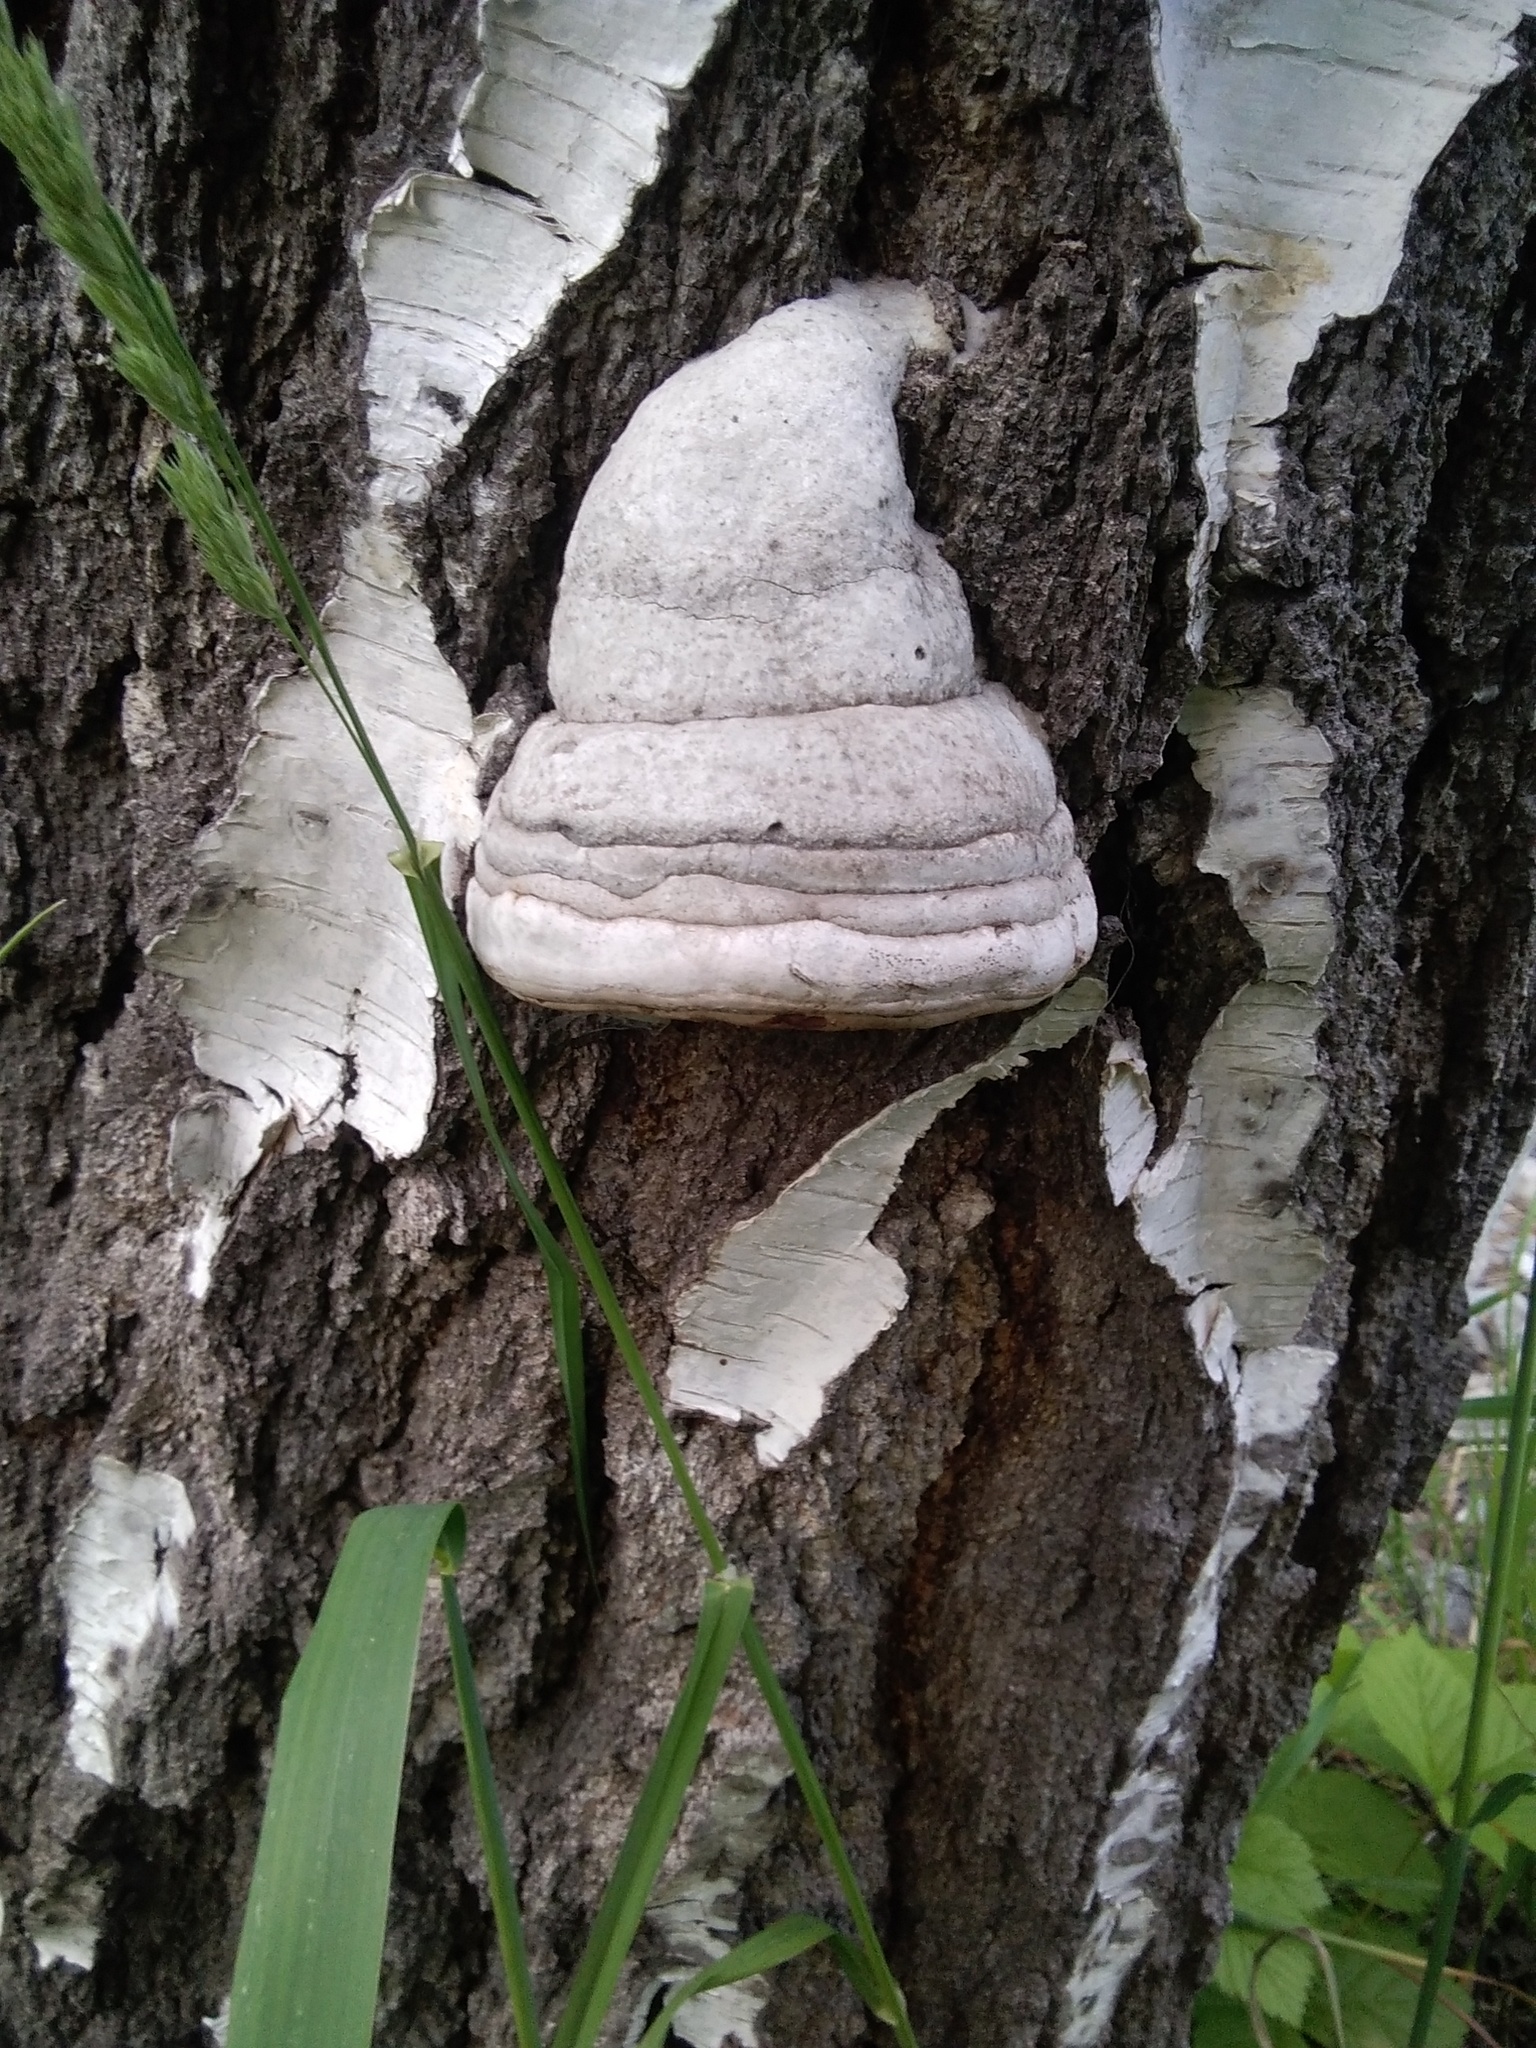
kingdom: Fungi
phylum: Basidiomycota
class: Agaricomycetes
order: Polyporales
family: Polyporaceae
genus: Fomes
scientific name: Fomes fomentarius
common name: Hoof fungus
